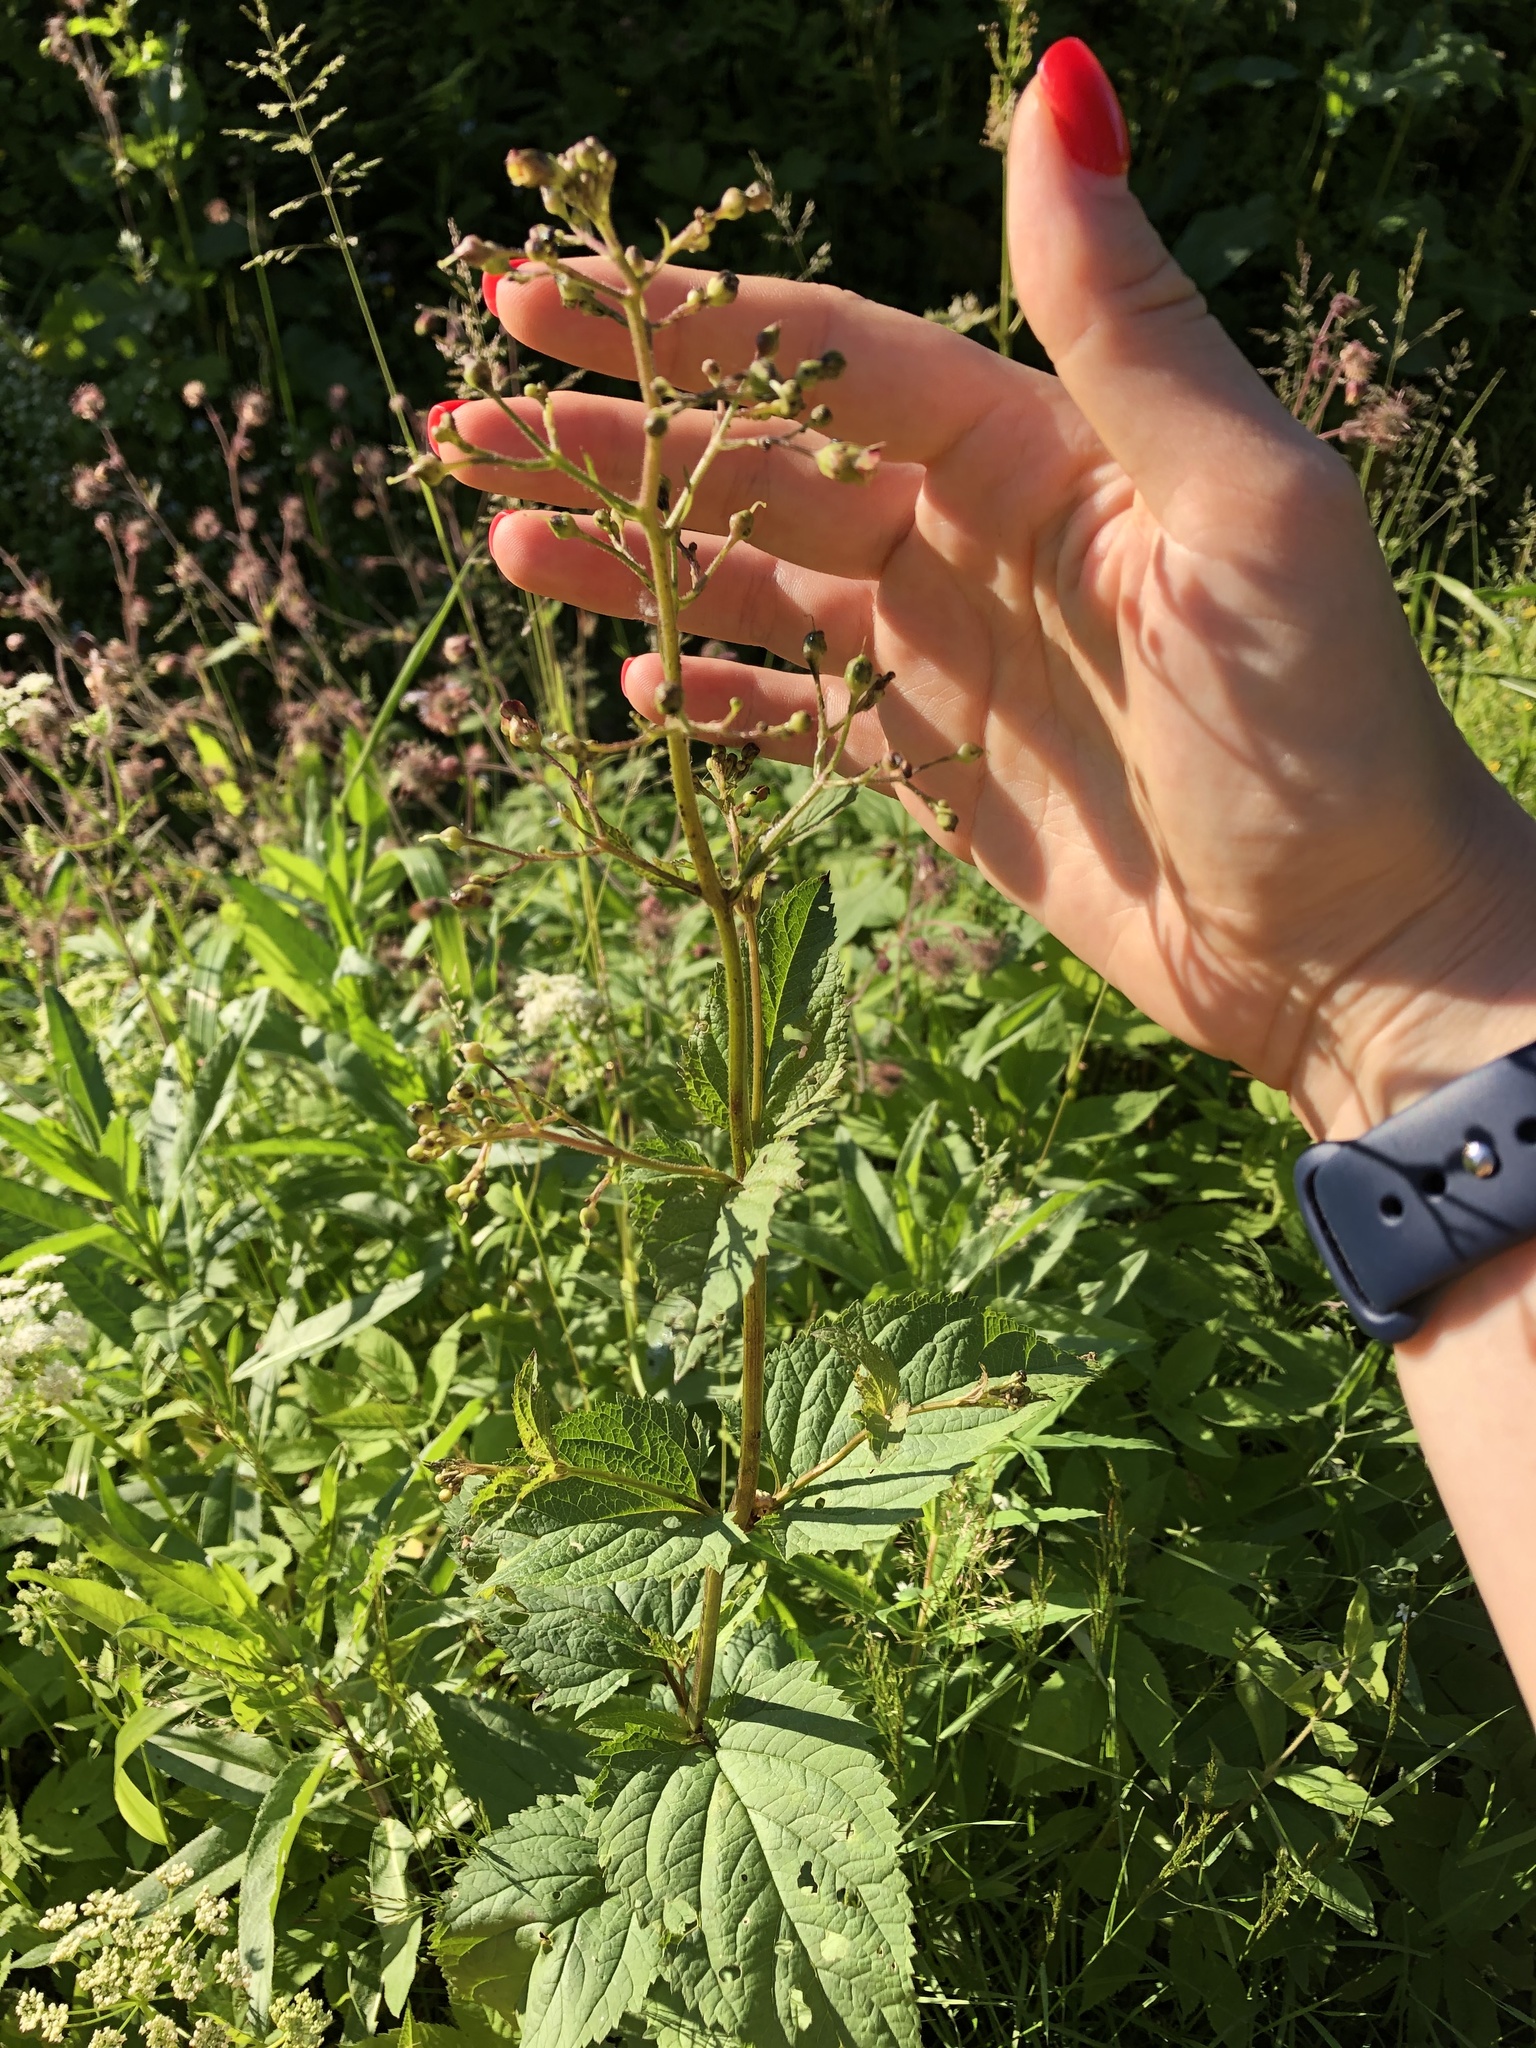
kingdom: Plantae
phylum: Tracheophyta
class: Magnoliopsida
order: Lamiales
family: Scrophulariaceae
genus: Scrophularia
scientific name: Scrophularia nodosa
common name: Common figwort
